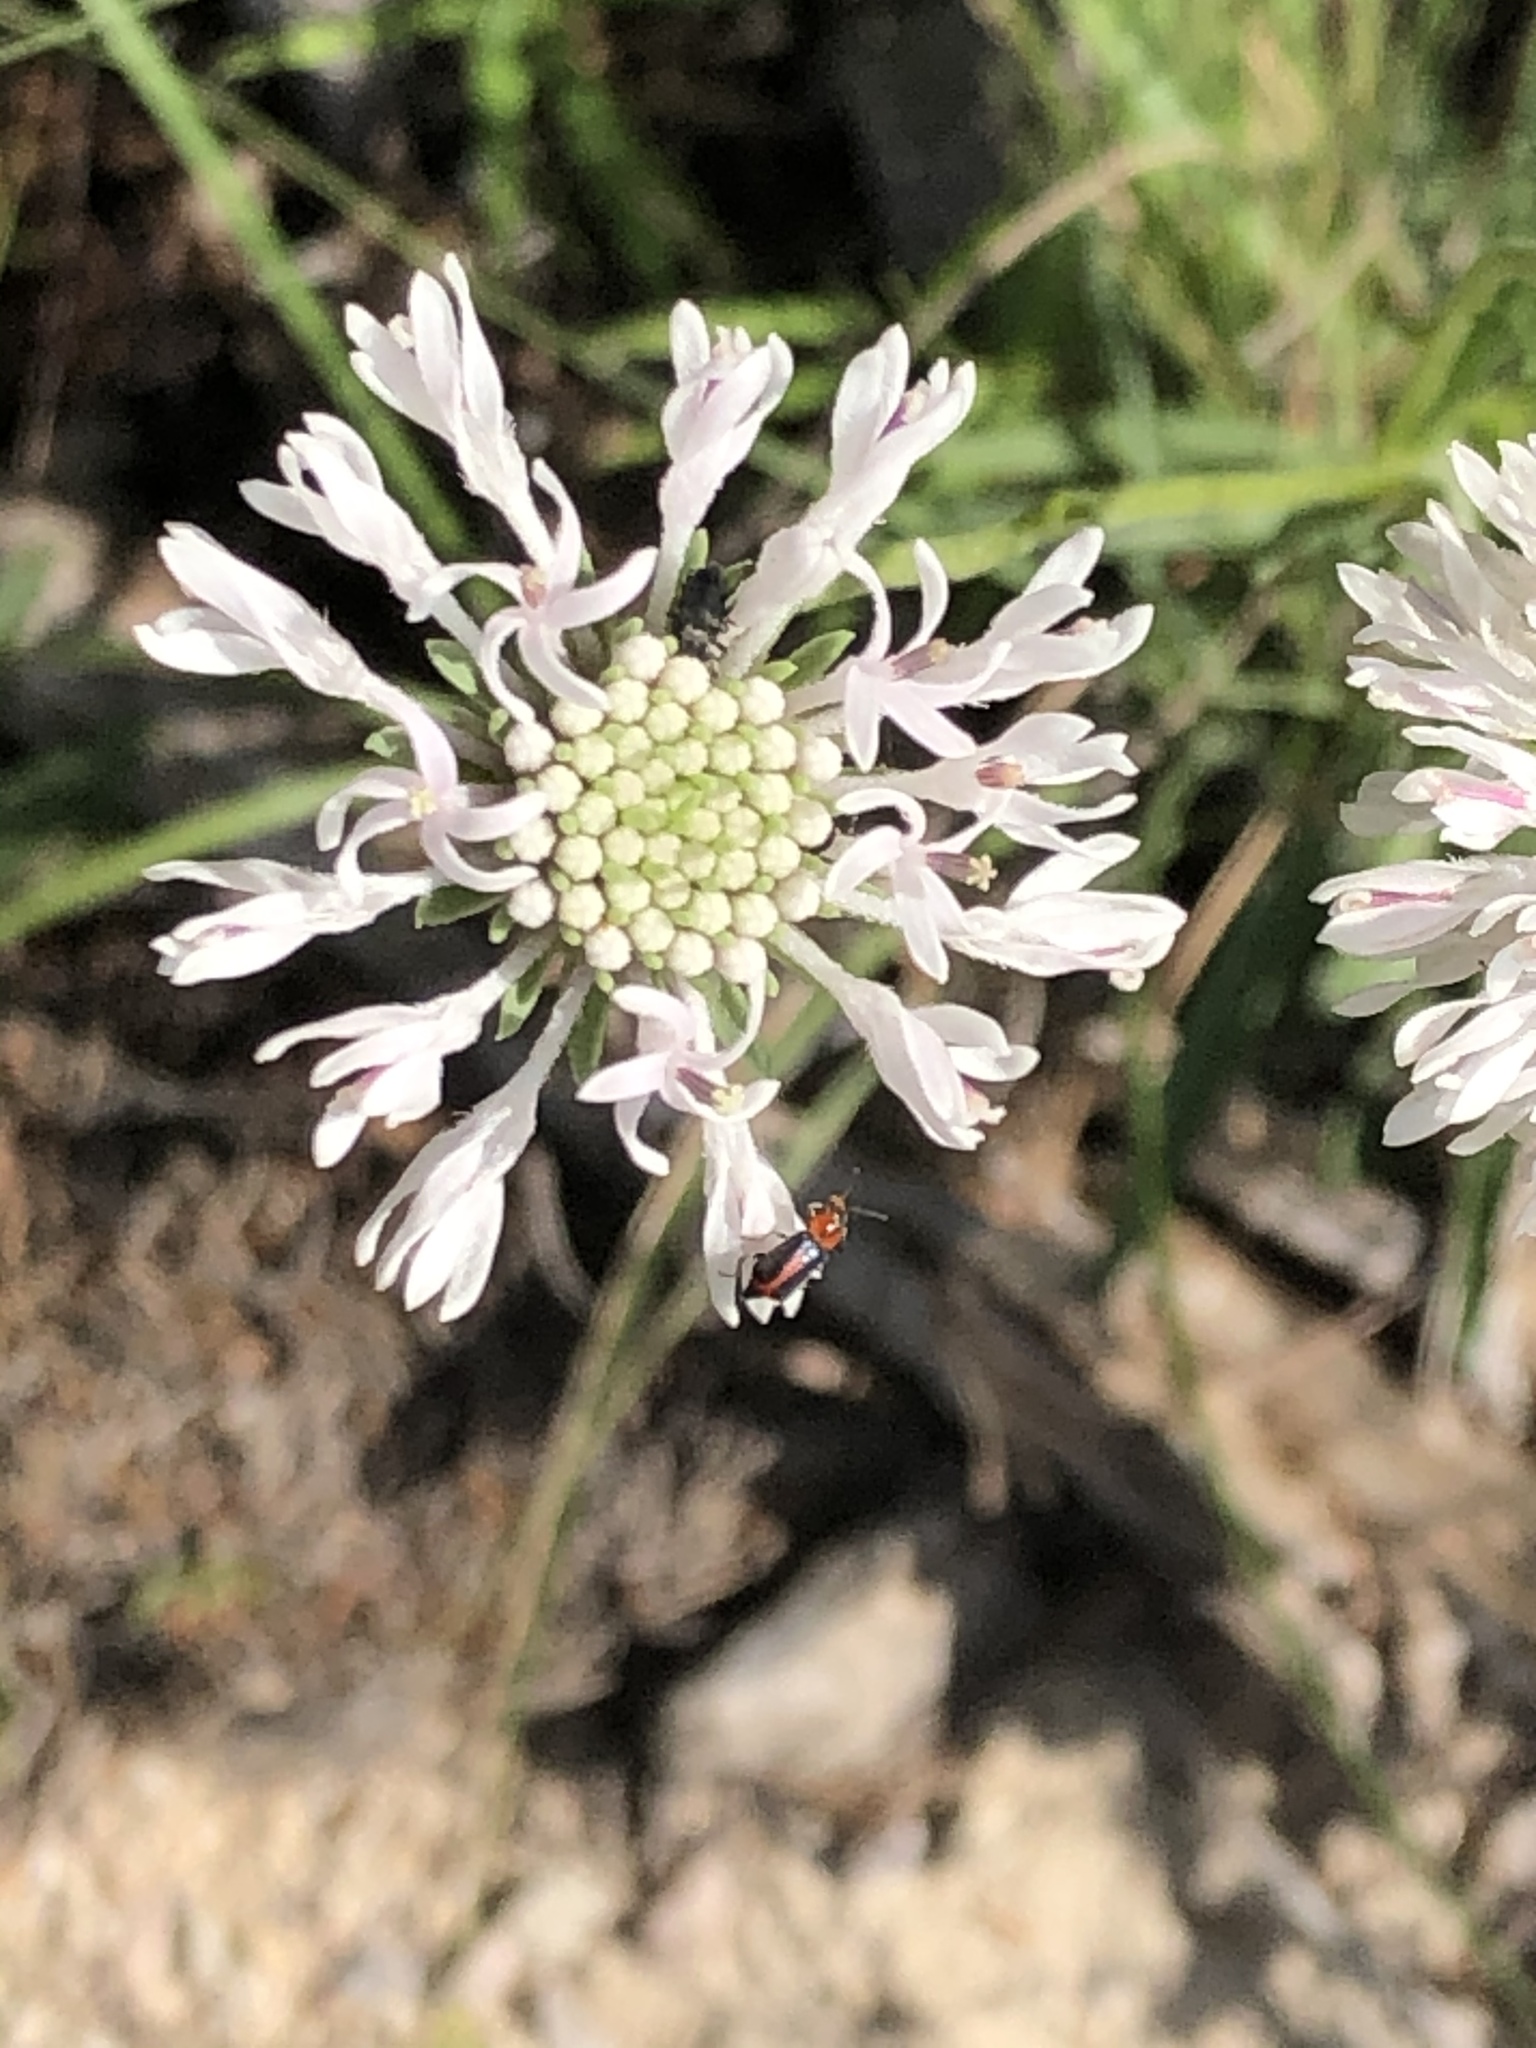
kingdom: Plantae
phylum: Tracheophyta
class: Magnoliopsida
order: Asterales
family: Asteraceae
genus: Marshallia
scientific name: Marshallia caespitosa
